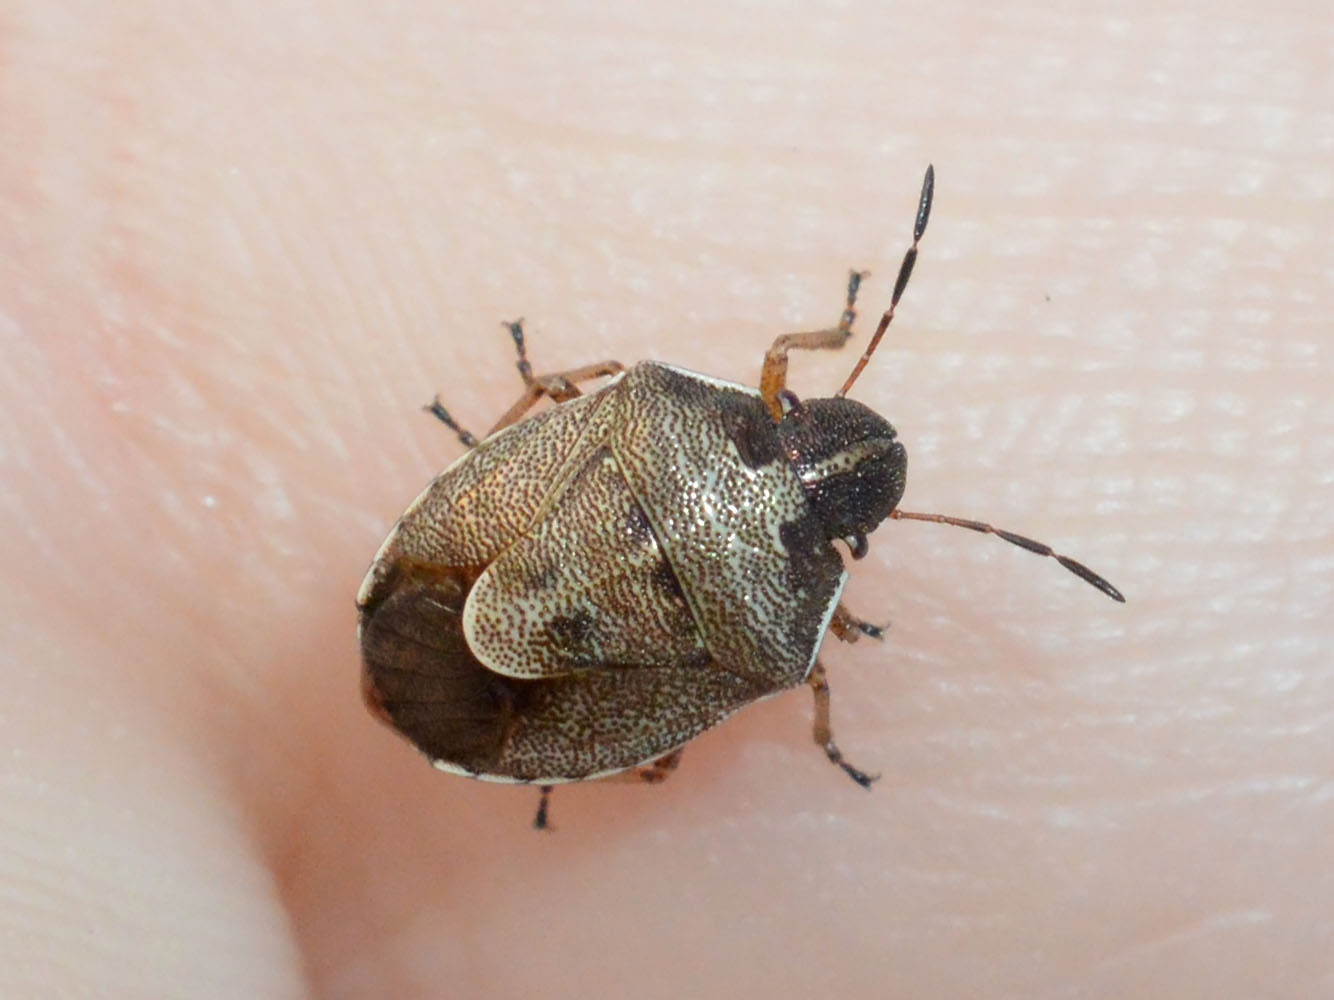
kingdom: Animalia
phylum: Arthropoda
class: Insecta
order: Hemiptera
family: Pentatomidae
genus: Rubiconia
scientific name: Rubiconia intermedia
